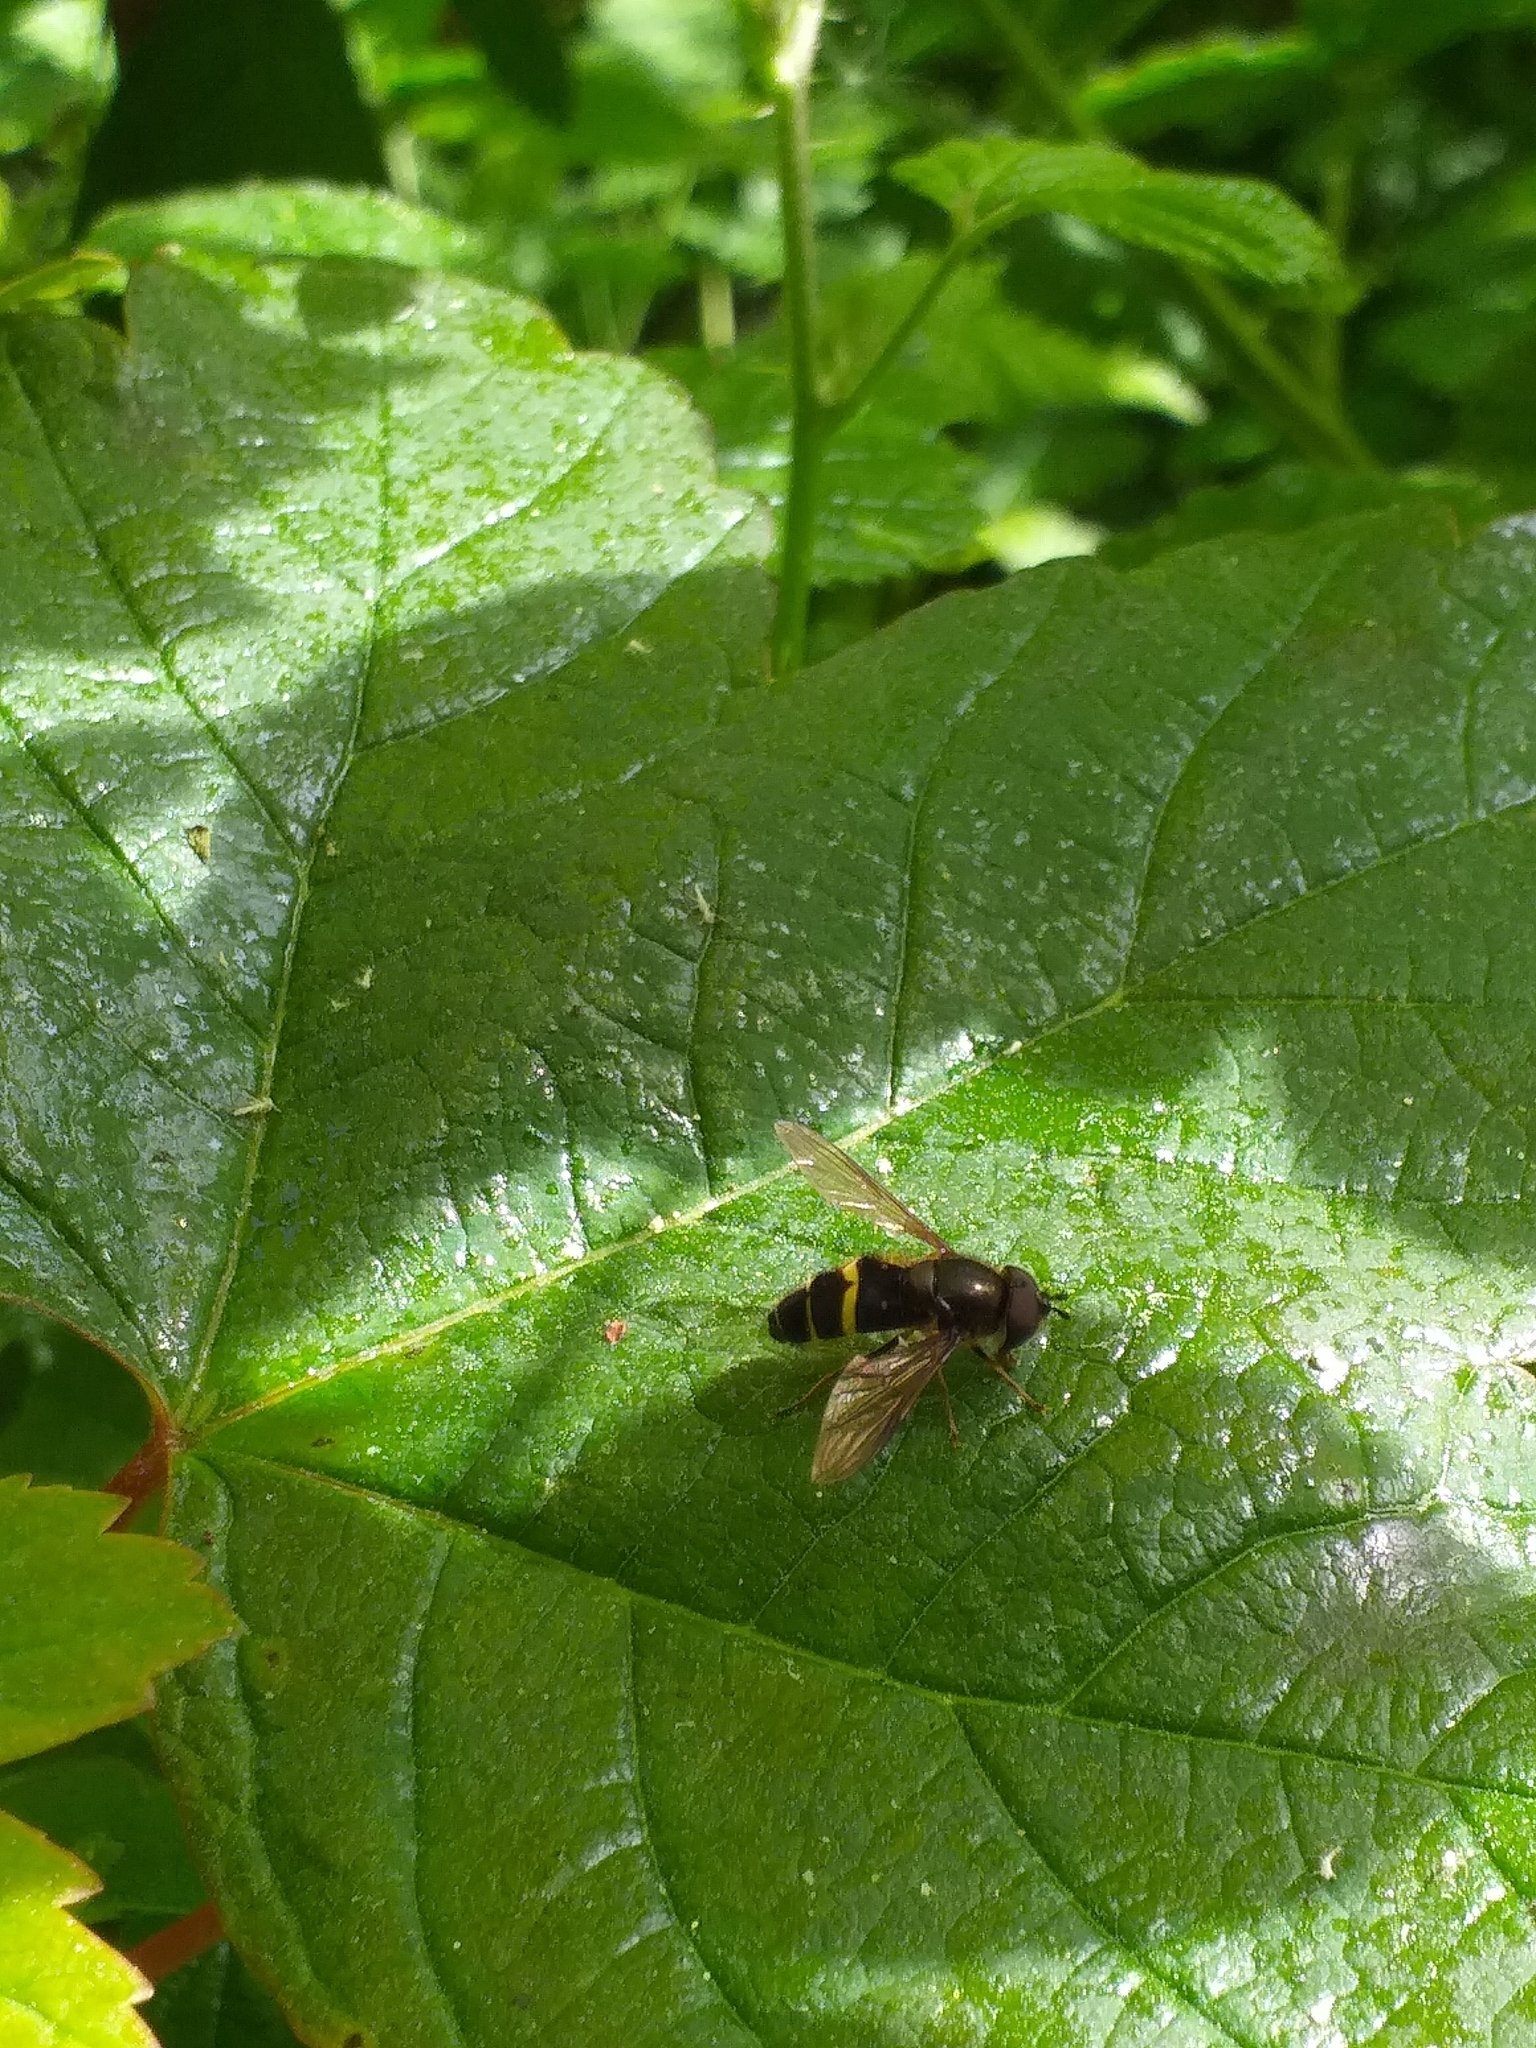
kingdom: Animalia
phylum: Arthropoda
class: Insecta
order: Diptera
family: Syrphidae
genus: Dasysyrphus
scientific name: Dasysyrphus tricinctus
